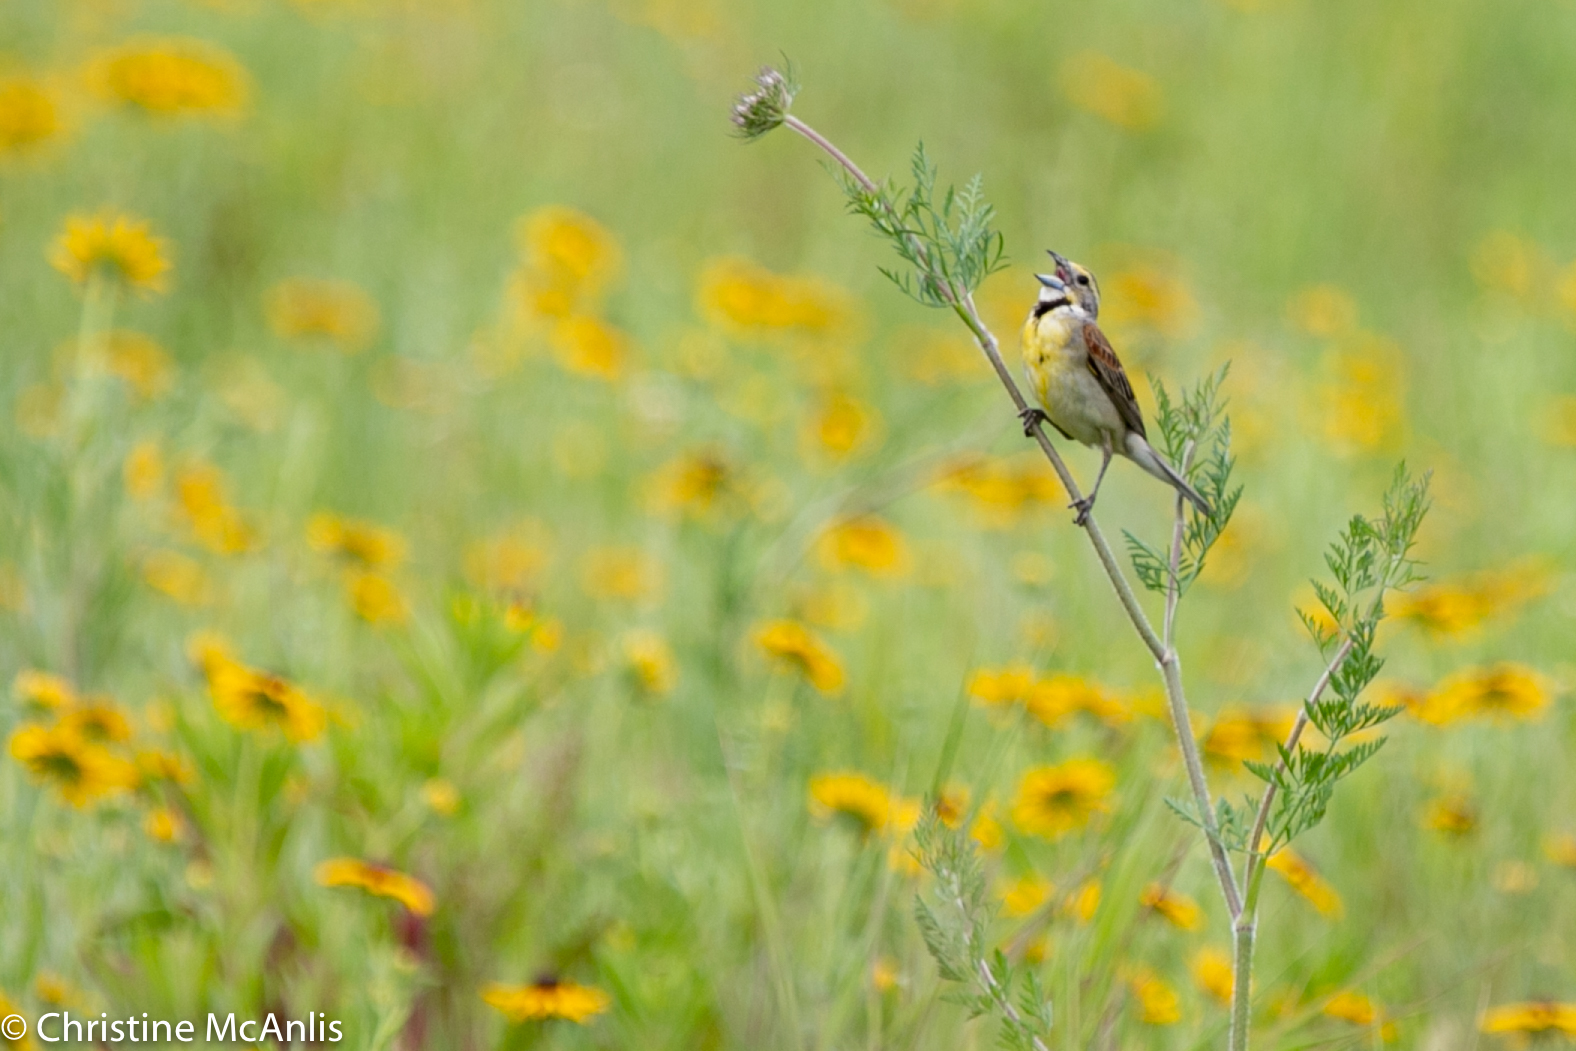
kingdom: Animalia
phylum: Chordata
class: Aves
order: Passeriformes
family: Cardinalidae
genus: Spiza
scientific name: Spiza americana
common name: Dickcissel
